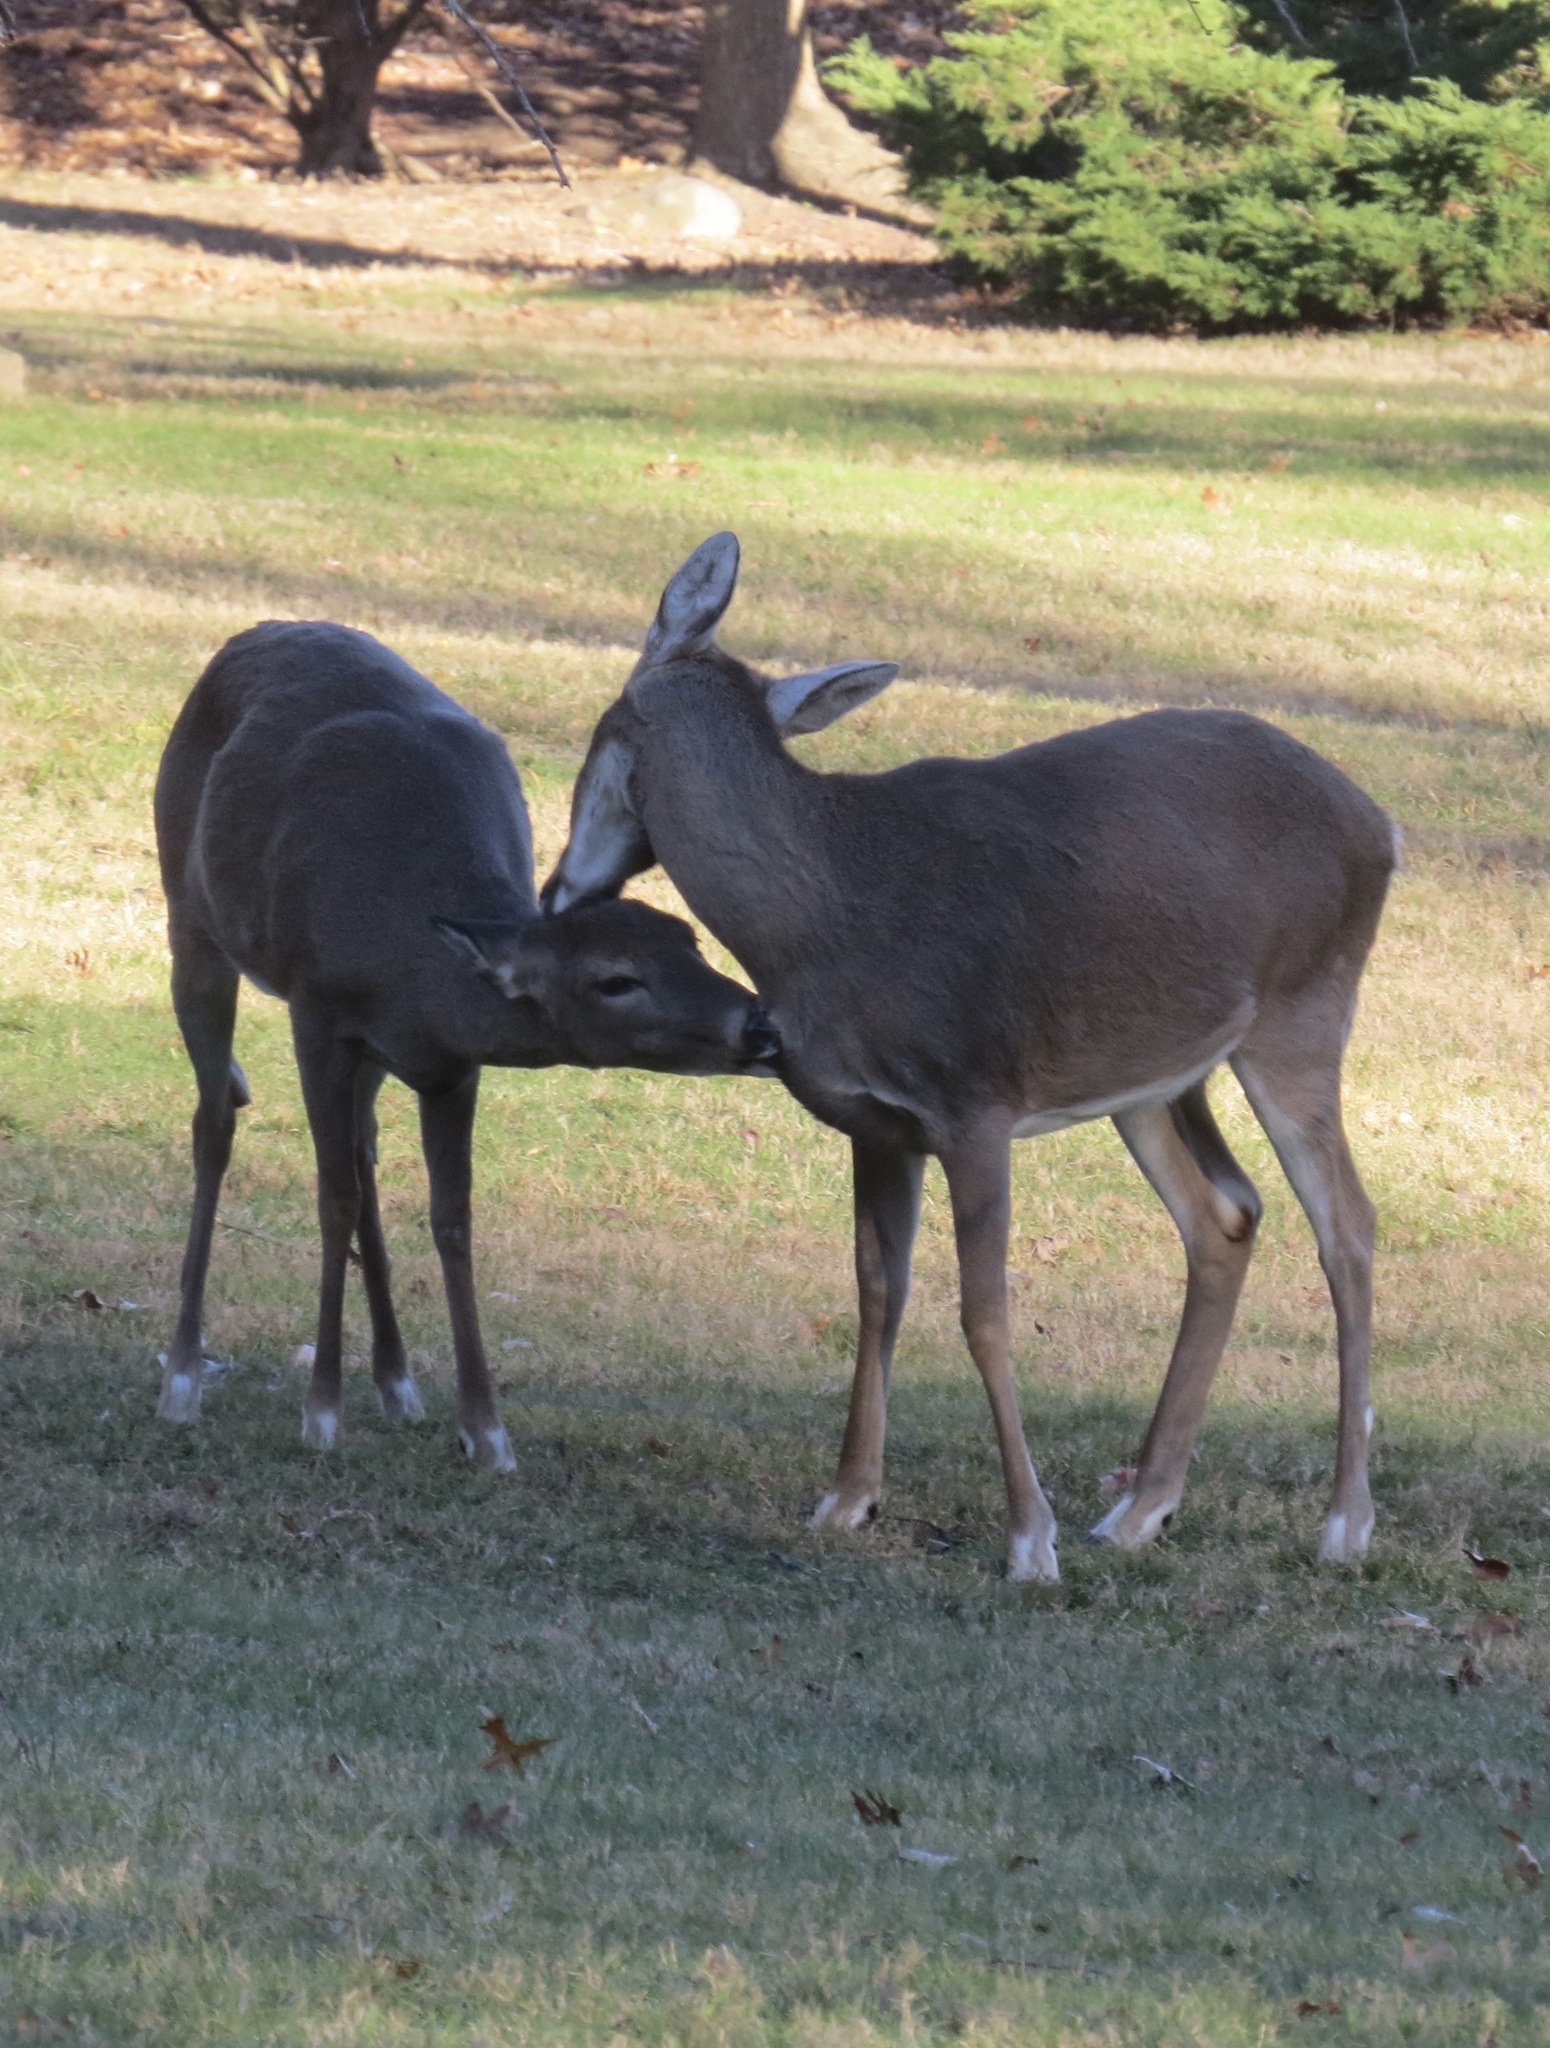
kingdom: Animalia
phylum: Chordata
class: Mammalia
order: Artiodactyla
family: Cervidae
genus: Odocoileus
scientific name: Odocoileus virginianus
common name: White-tailed deer
